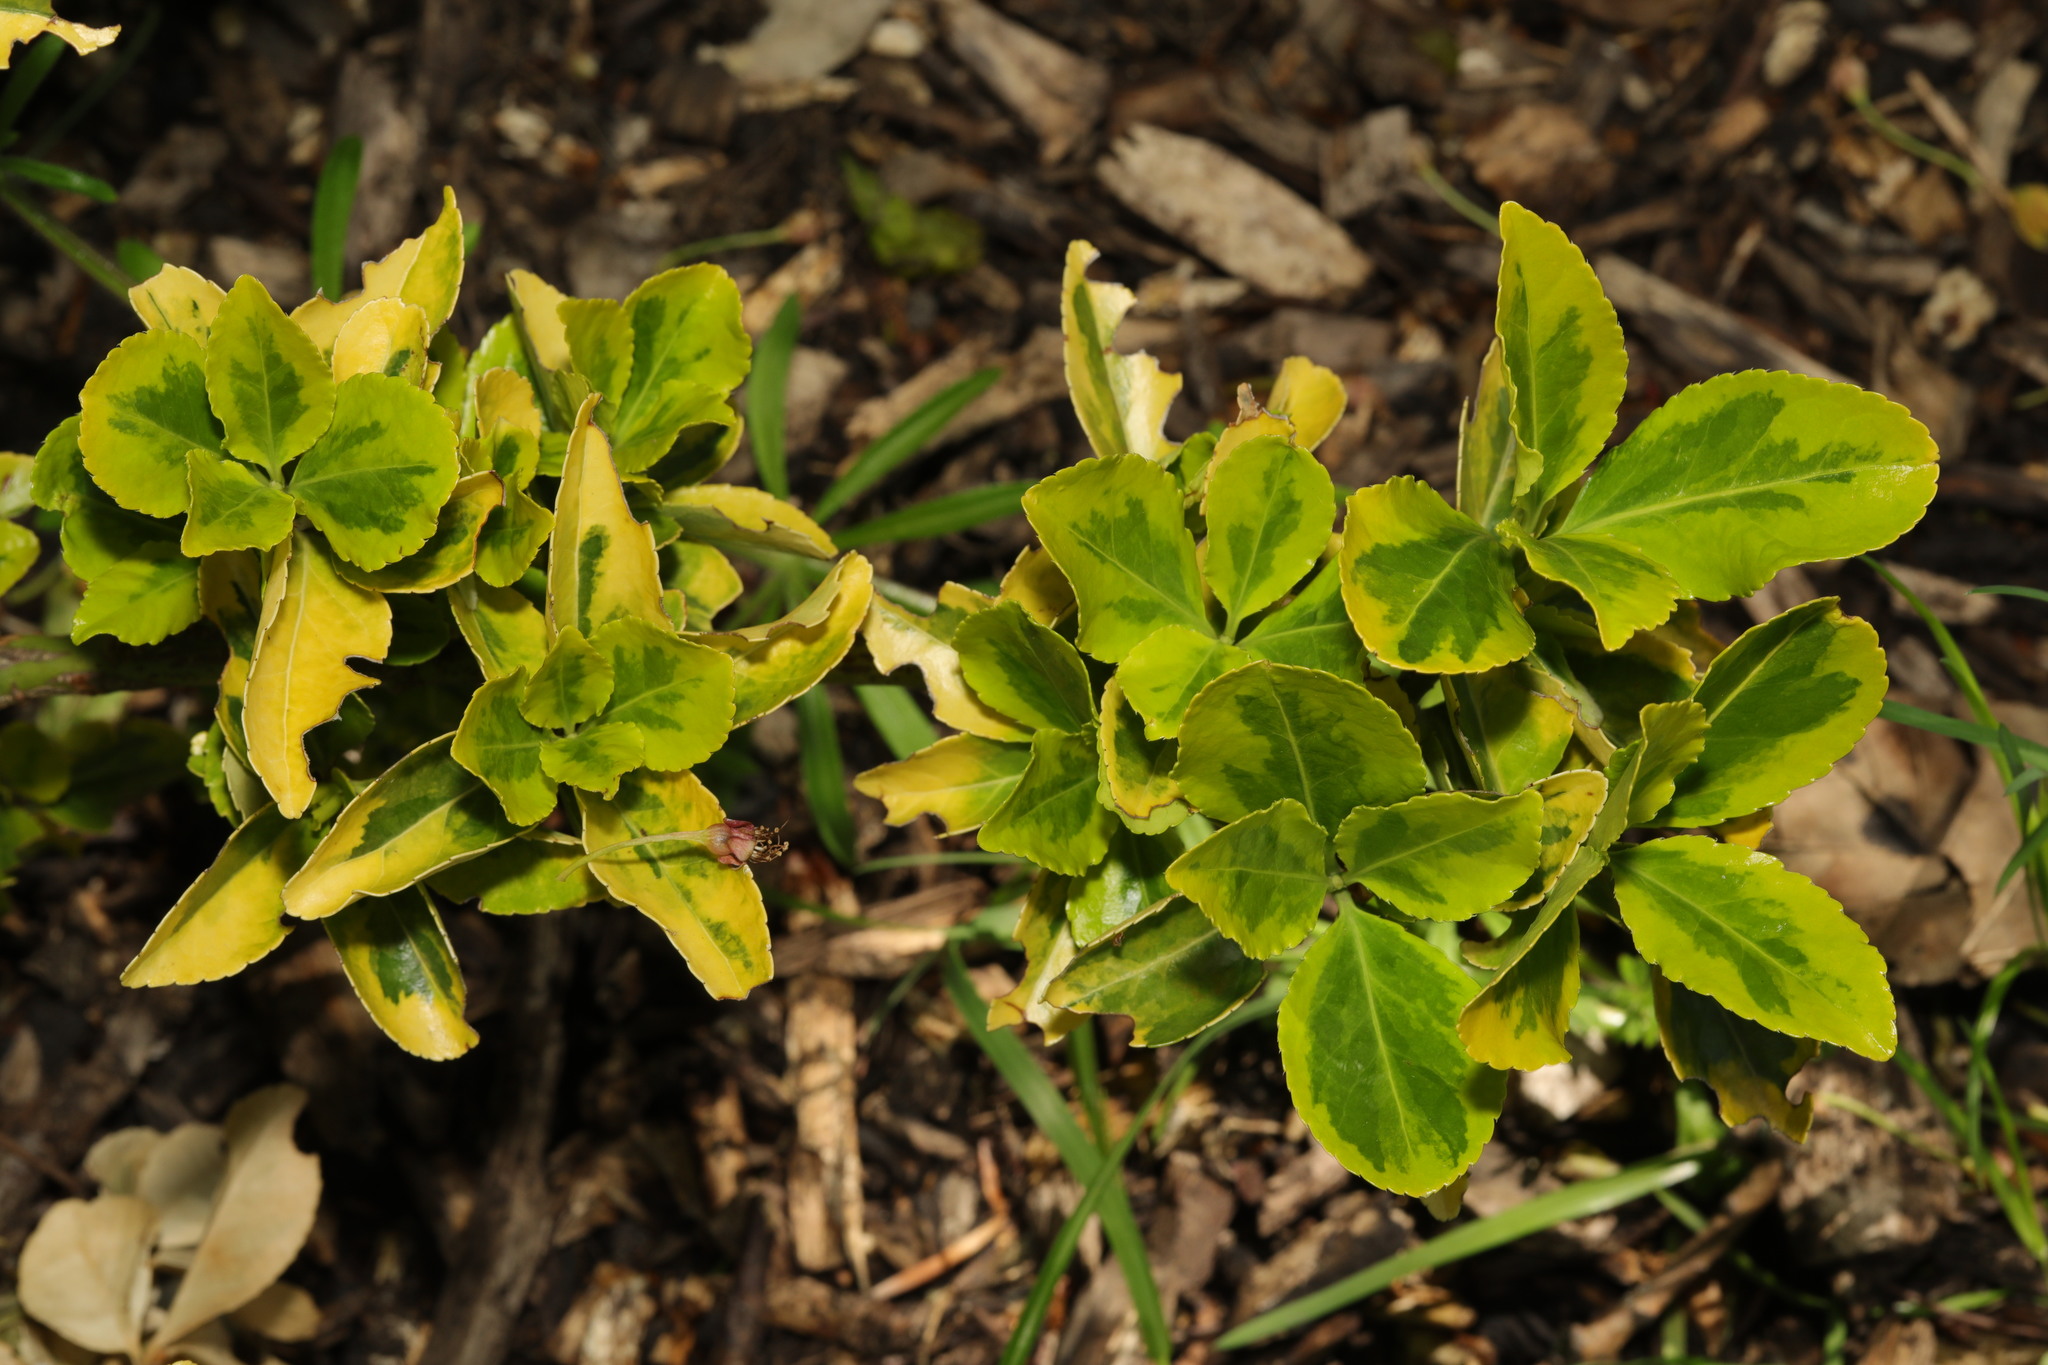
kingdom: Plantae
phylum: Tracheophyta
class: Magnoliopsida
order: Celastrales
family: Celastraceae
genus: Euonymus
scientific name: Euonymus japonicus
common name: Japanese spindletree
